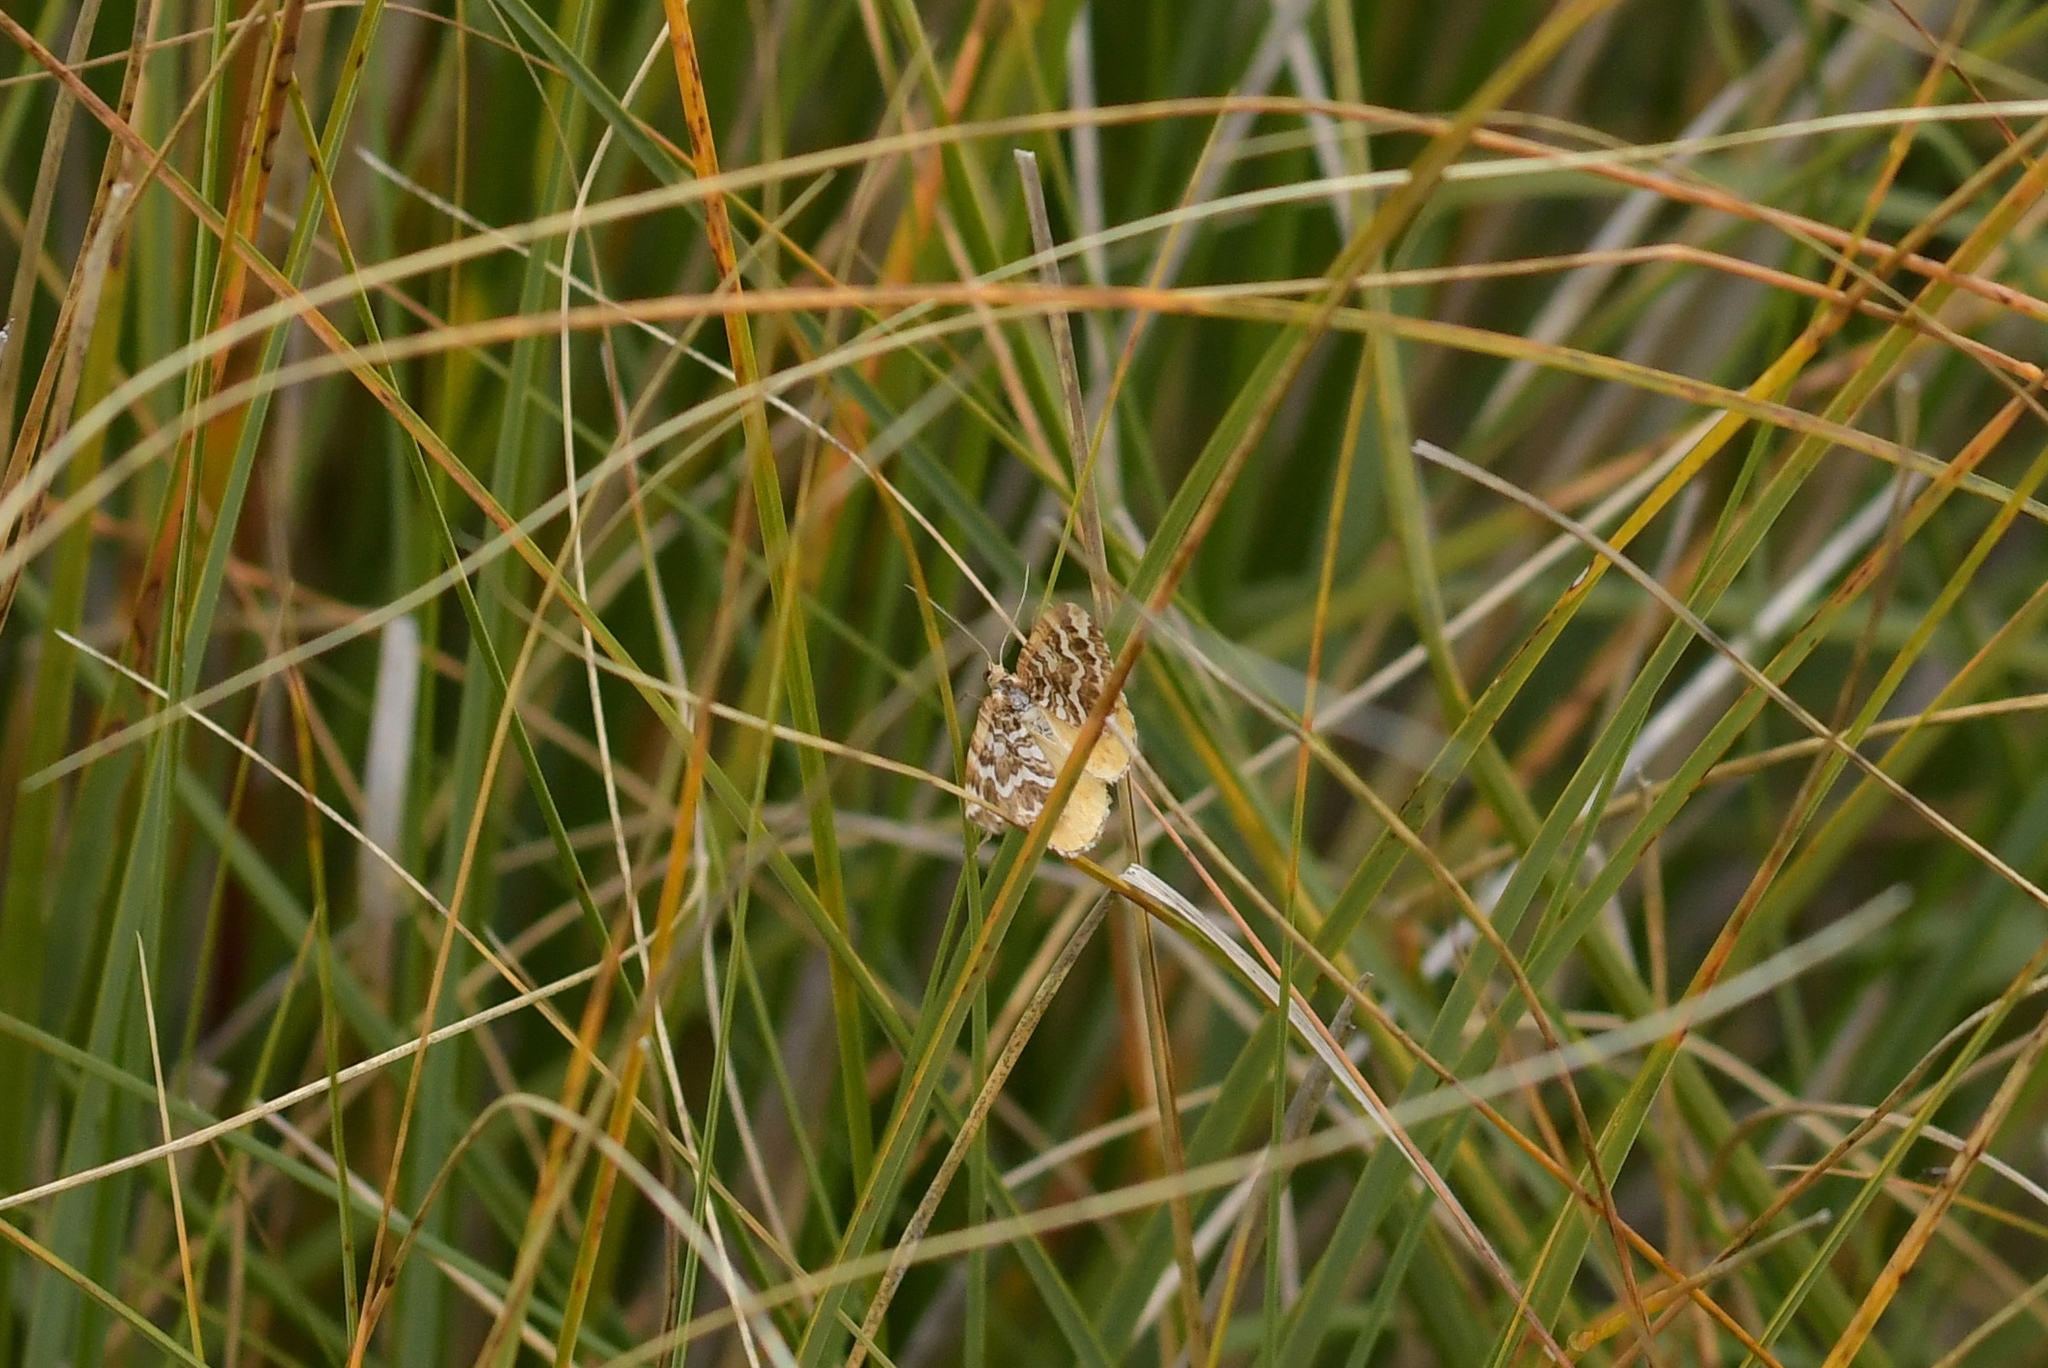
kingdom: Animalia
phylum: Arthropoda
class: Insecta
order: Lepidoptera
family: Geometridae
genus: Asaphodes
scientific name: Asaphodes clarata
